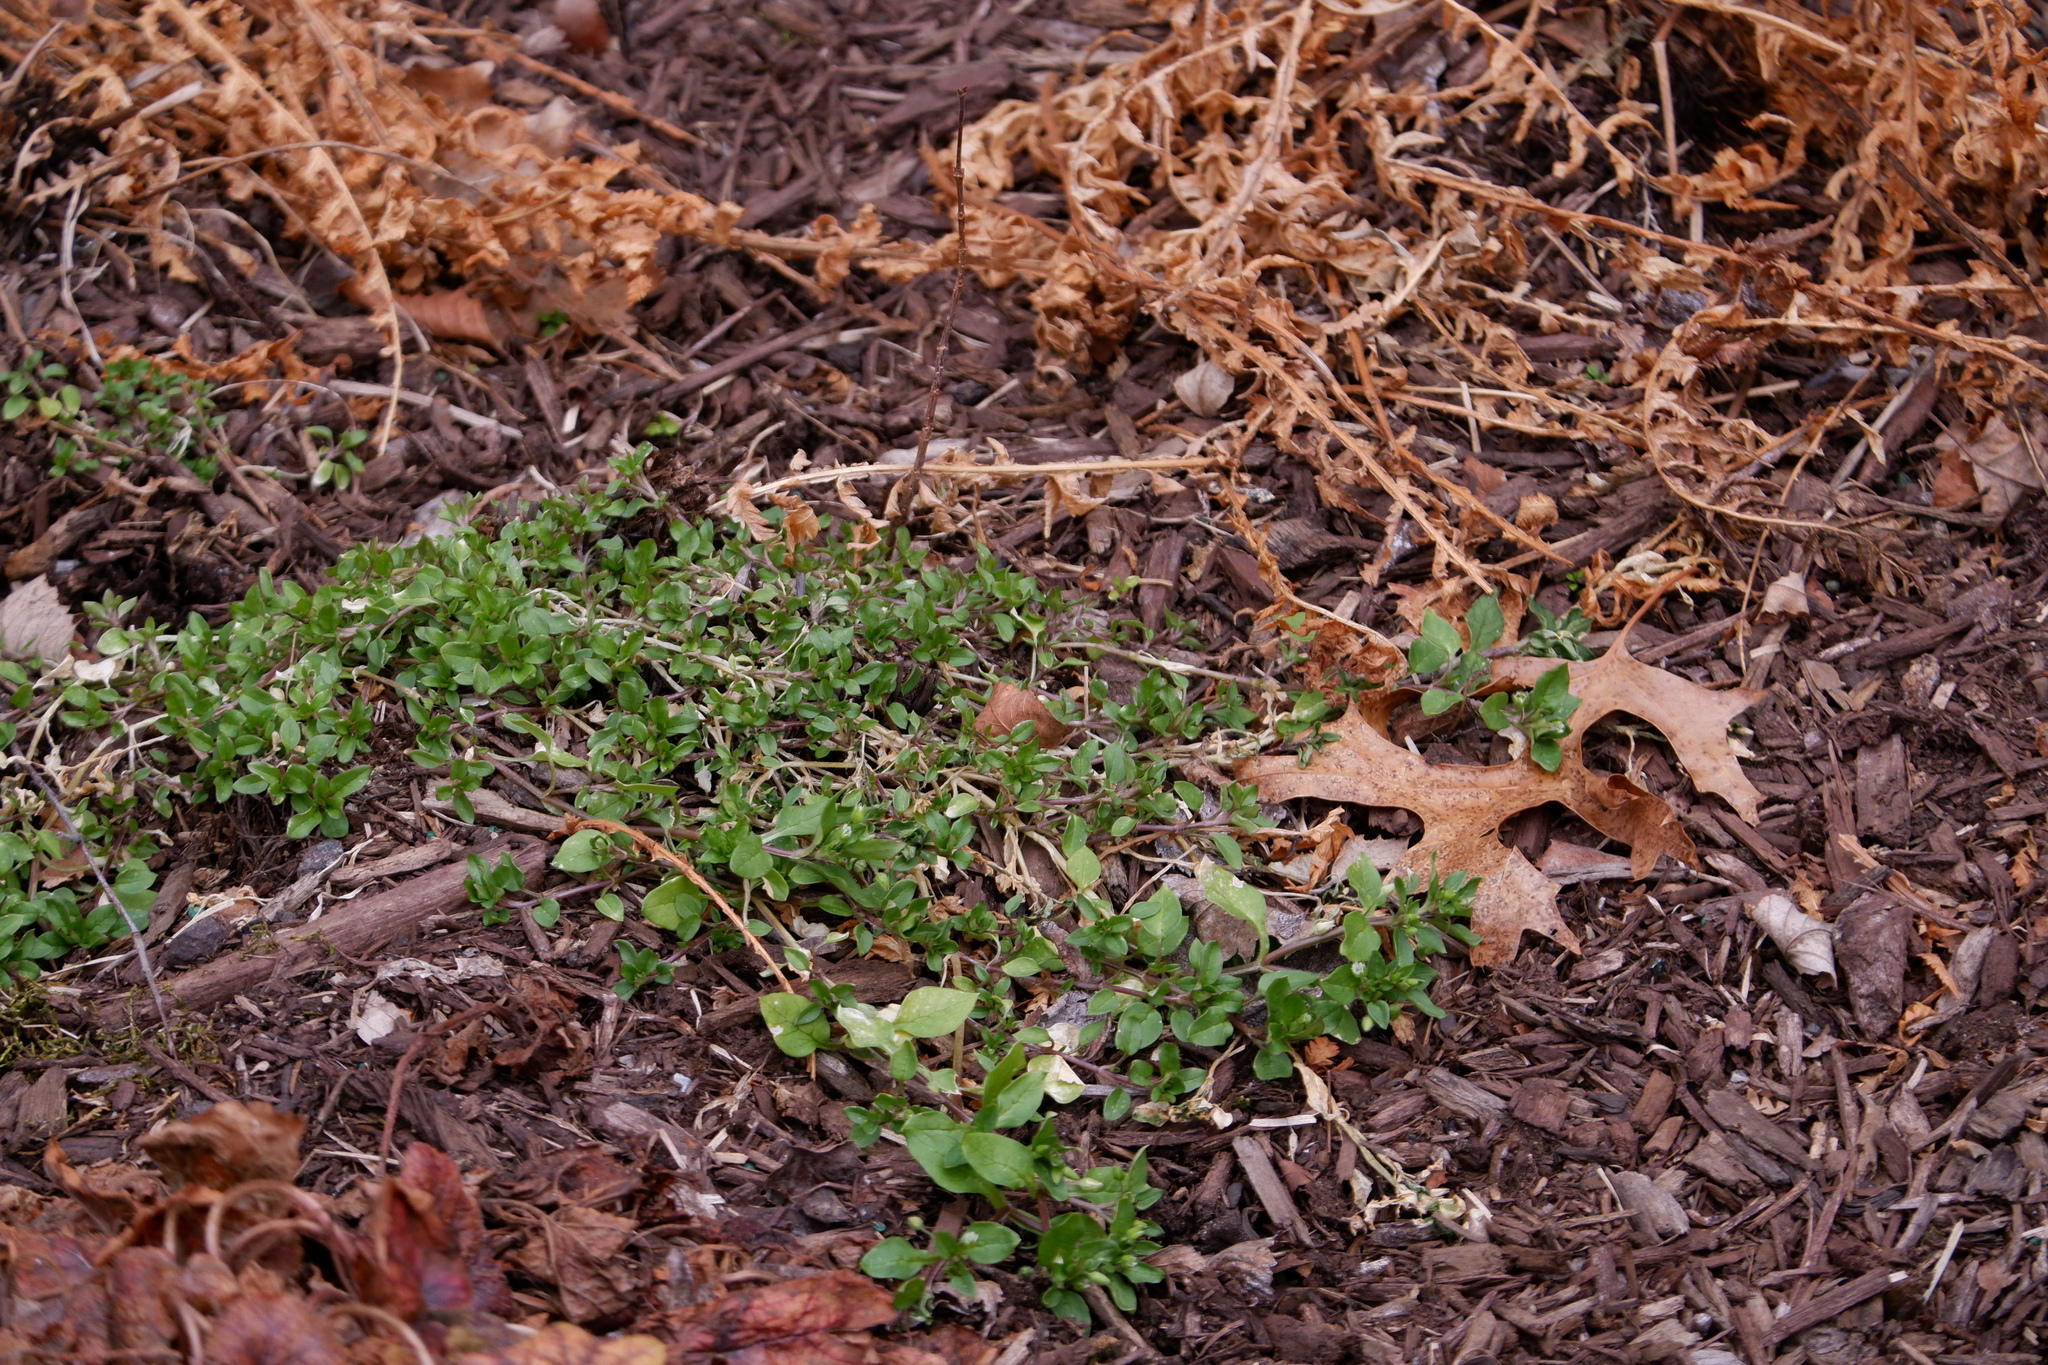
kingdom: Plantae
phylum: Tracheophyta
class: Magnoliopsida
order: Caryophyllales
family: Caryophyllaceae
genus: Stellaria
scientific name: Stellaria media
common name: Common chickweed
